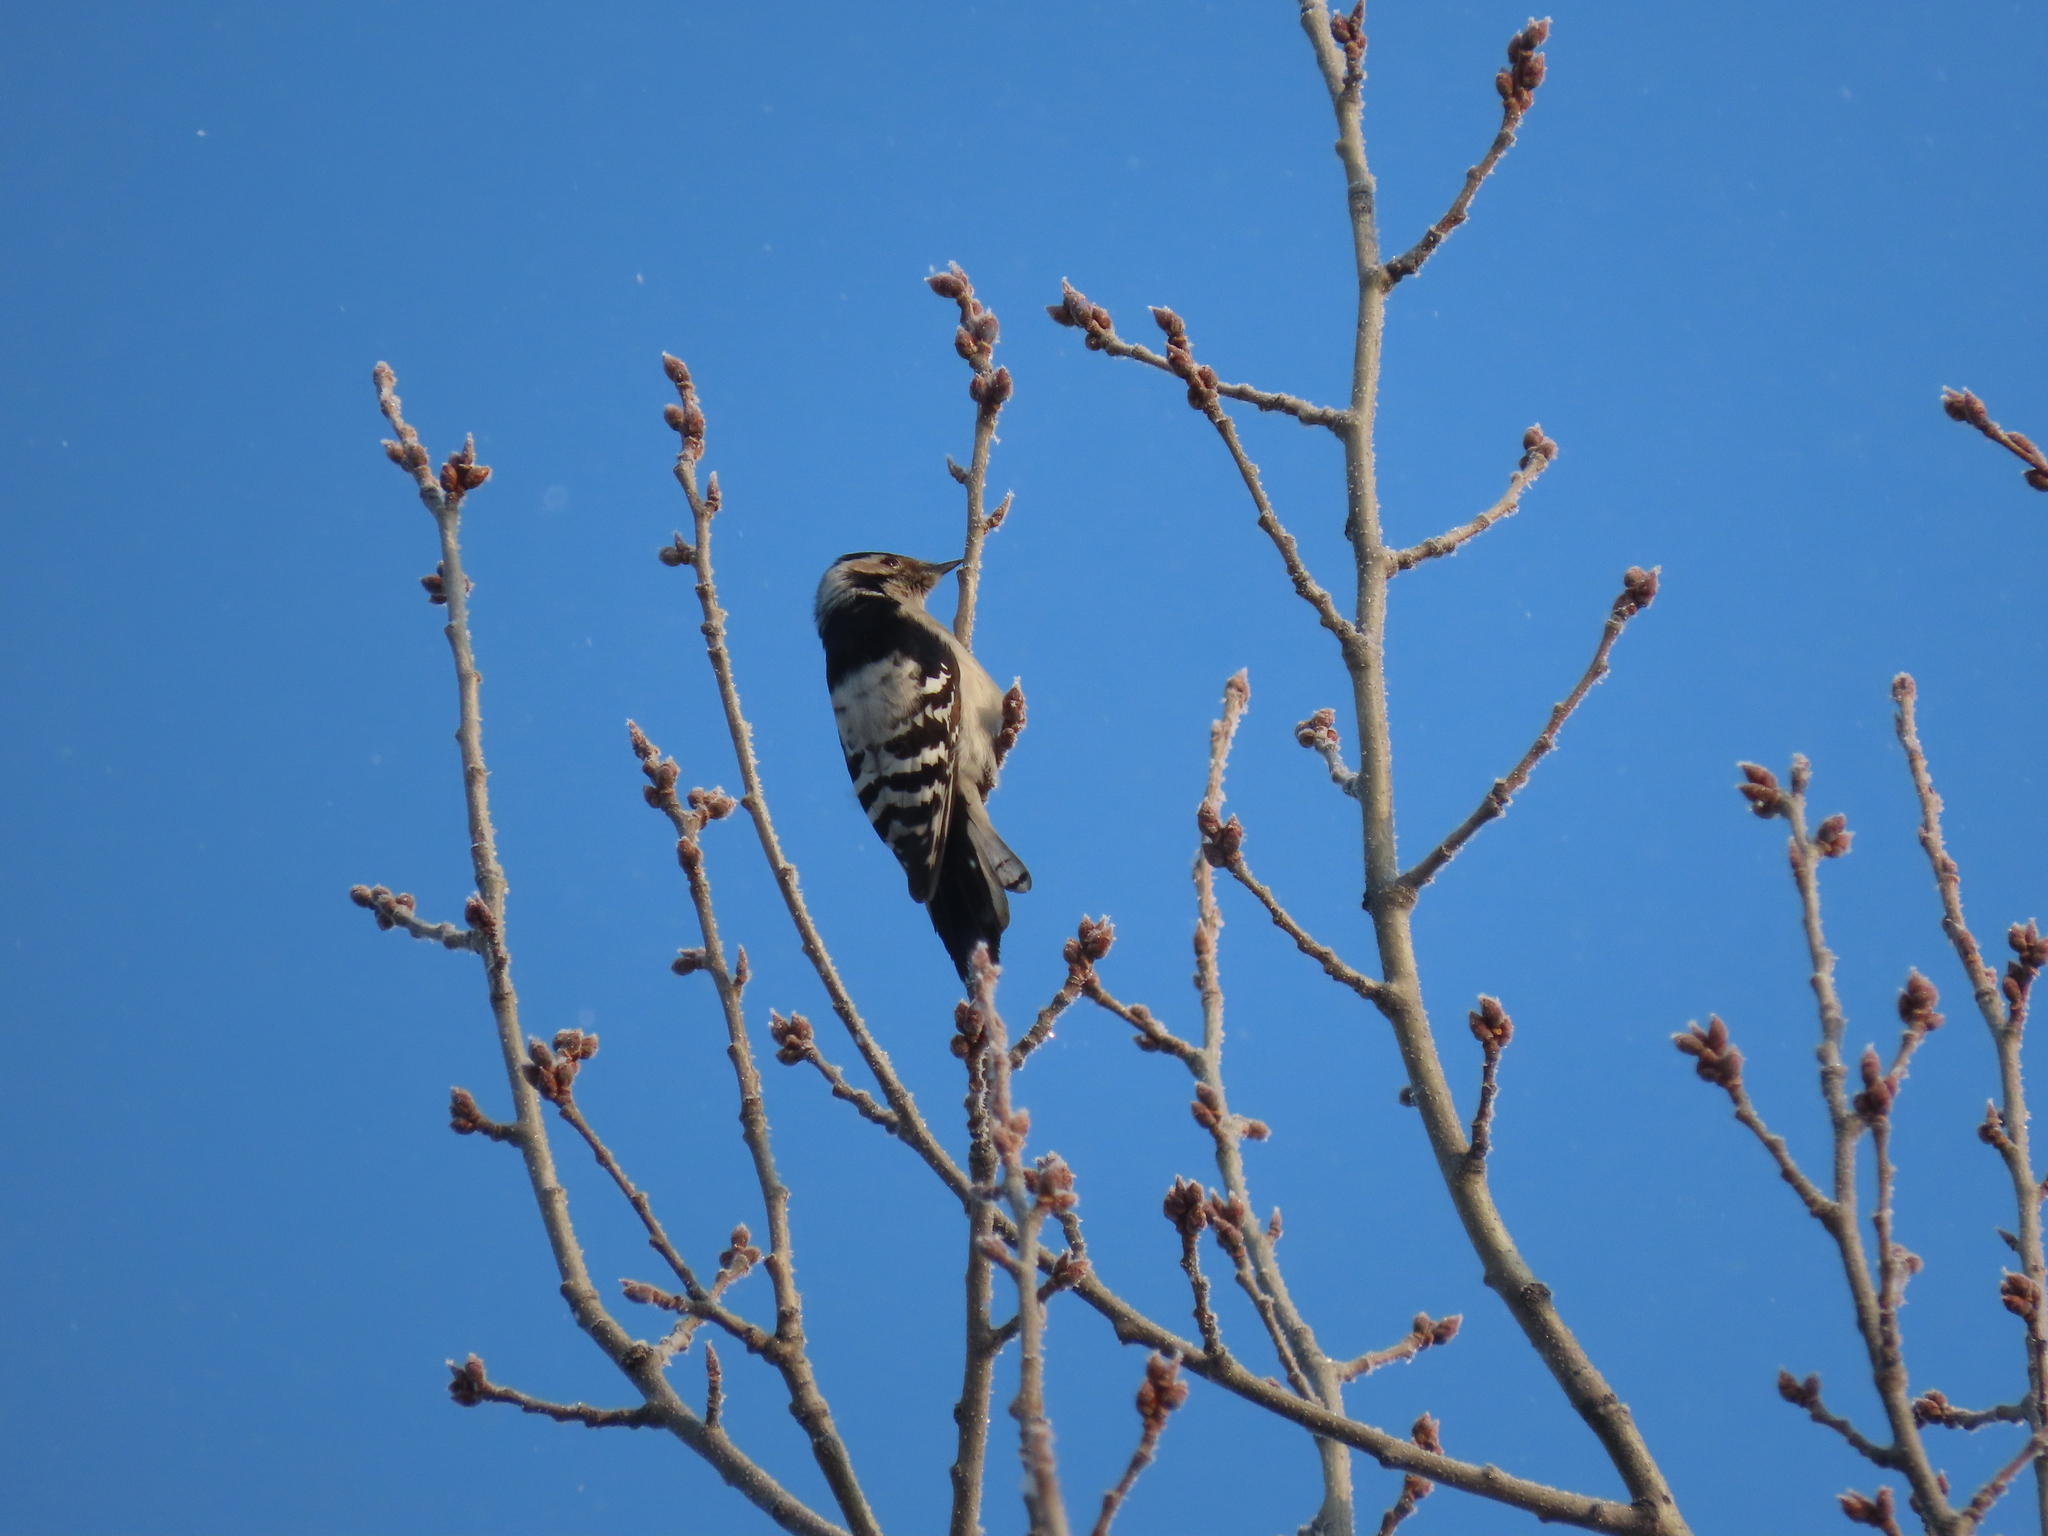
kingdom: Animalia
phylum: Chordata
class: Aves
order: Piciformes
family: Picidae
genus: Dryobates
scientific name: Dryobates minor
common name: Lesser spotted woodpecker
